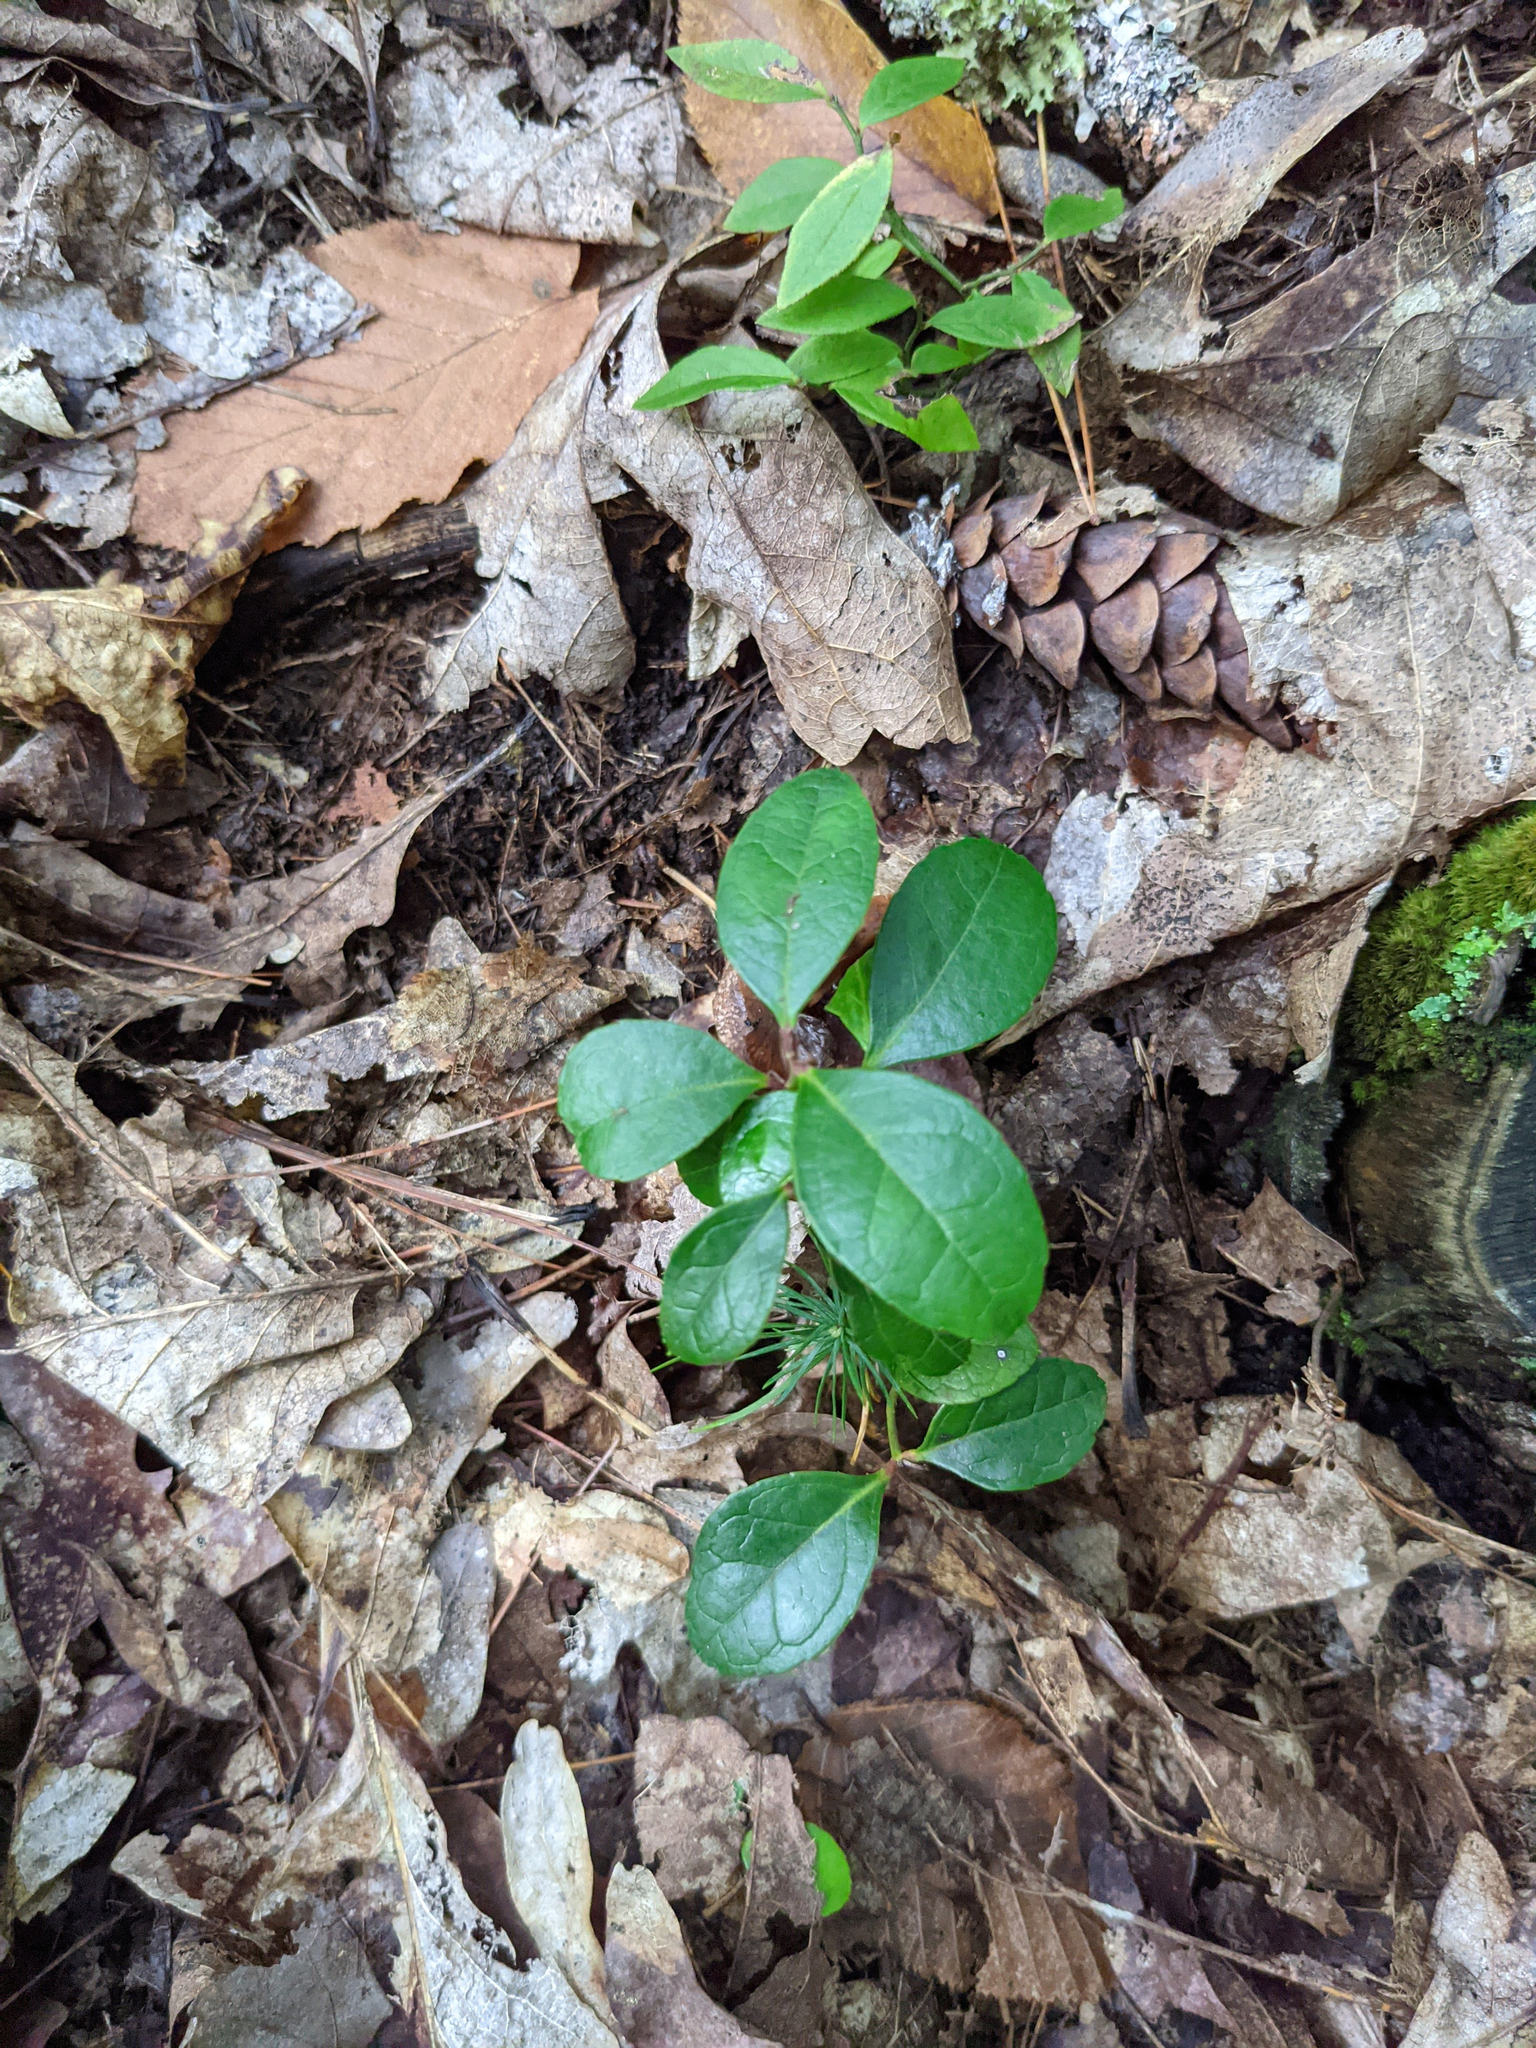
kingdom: Plantae
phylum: Tracheophyta
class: Magnoliopsida
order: Ericales
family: Ericaceae
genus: Gaultheria
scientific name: Gaultheria procumbens
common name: Checkerberry
